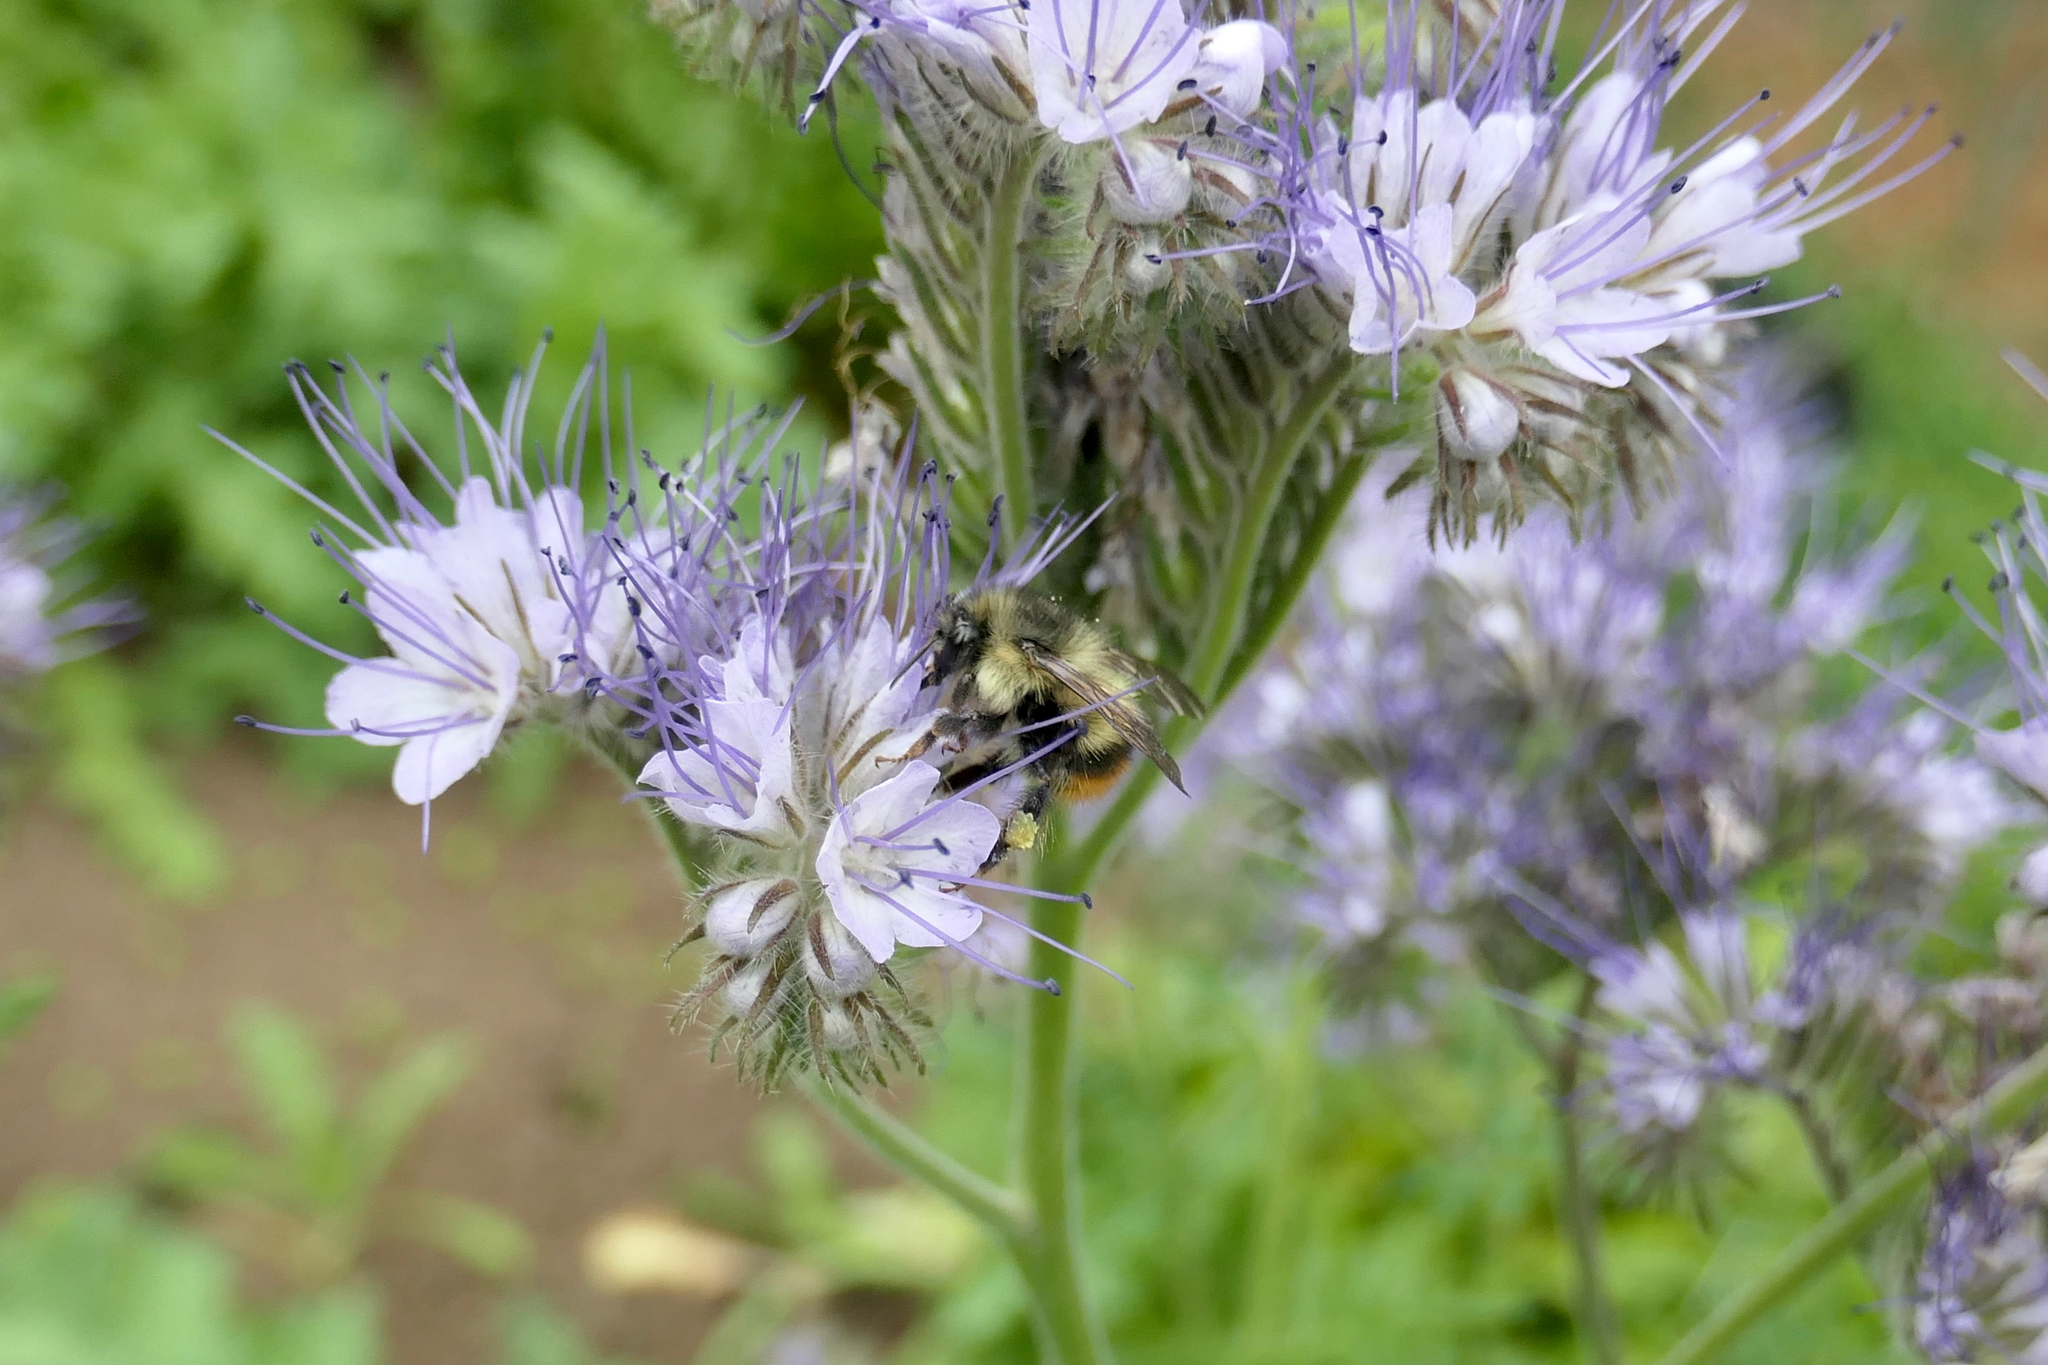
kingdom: Animalia
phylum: Arthropoda
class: Insecta
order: Hymenoptera
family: Apidae
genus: Bombus
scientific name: Bombus mixtus
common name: Fuzzy-horned bumble bee
